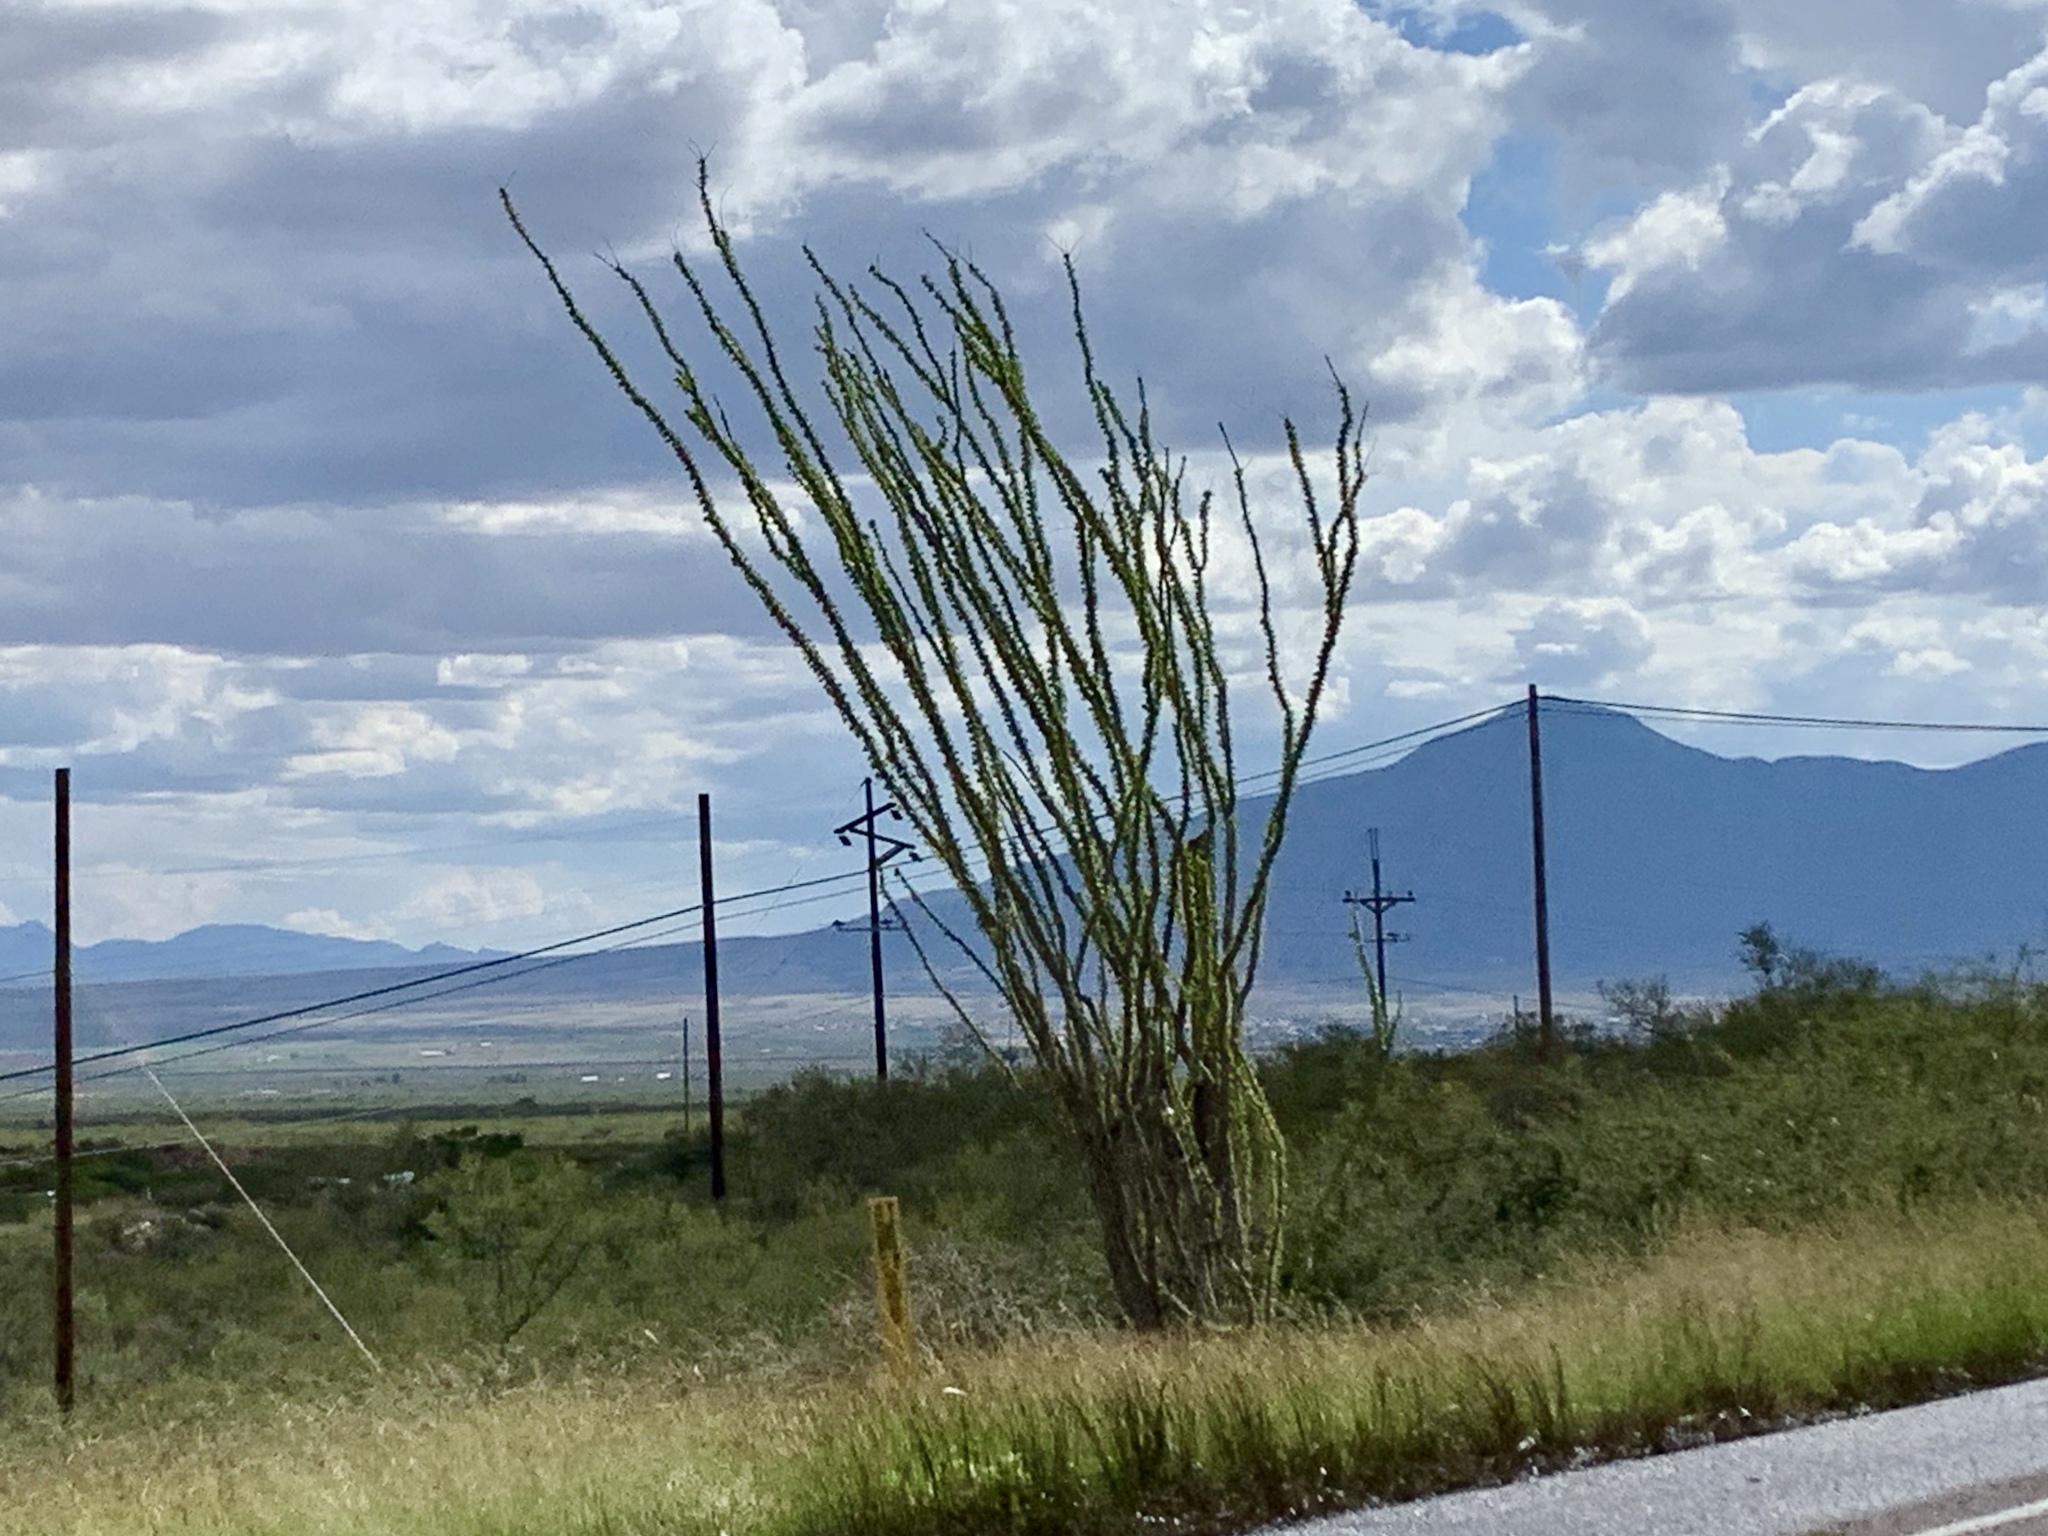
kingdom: Plantae
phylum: Tracheophyta
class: Magnoliopsida
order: Ericales
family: Fouquieriaceae
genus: Fouquieria
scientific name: Fouquieria splendens
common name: Vine-cactus
